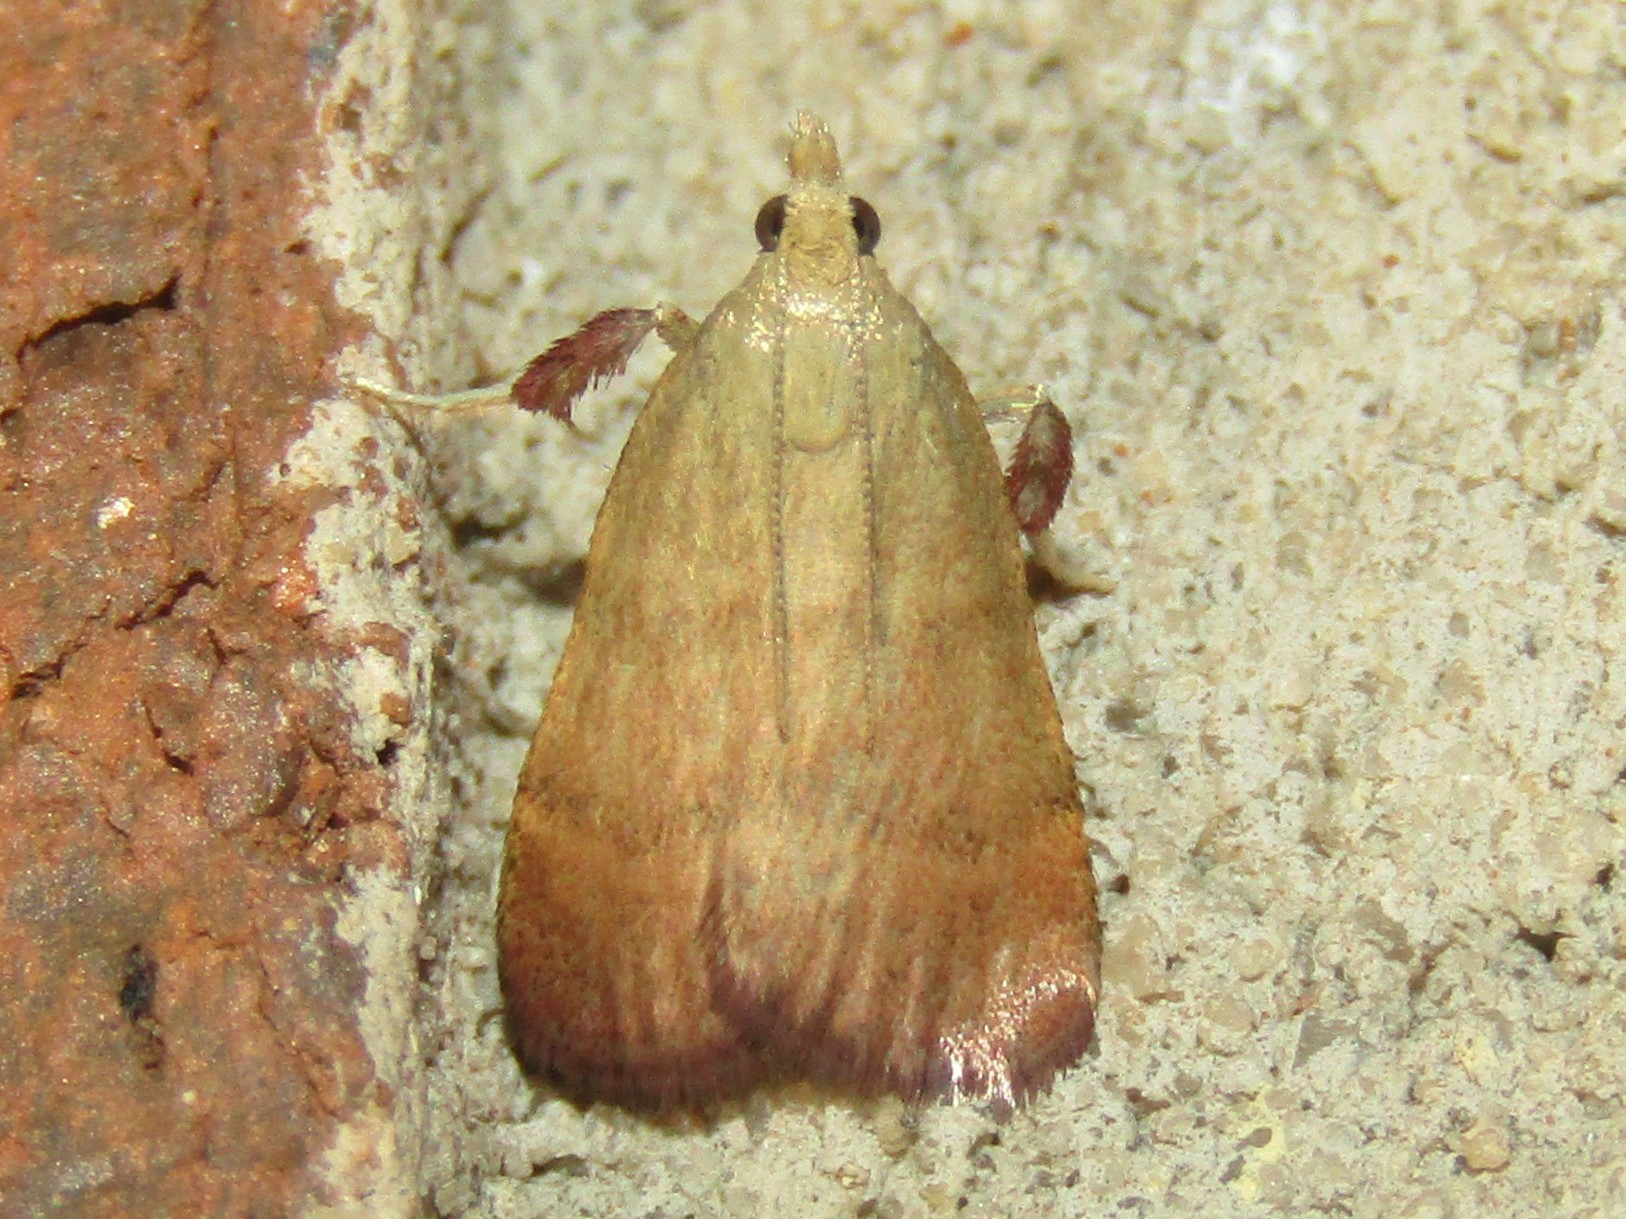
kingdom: Animalia
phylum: Arthropoda
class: Insecta
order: Lepidoptera
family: Pyralidae
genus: Condylolomia
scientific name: Condylolomia participialis
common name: Drab condylolomia moth
